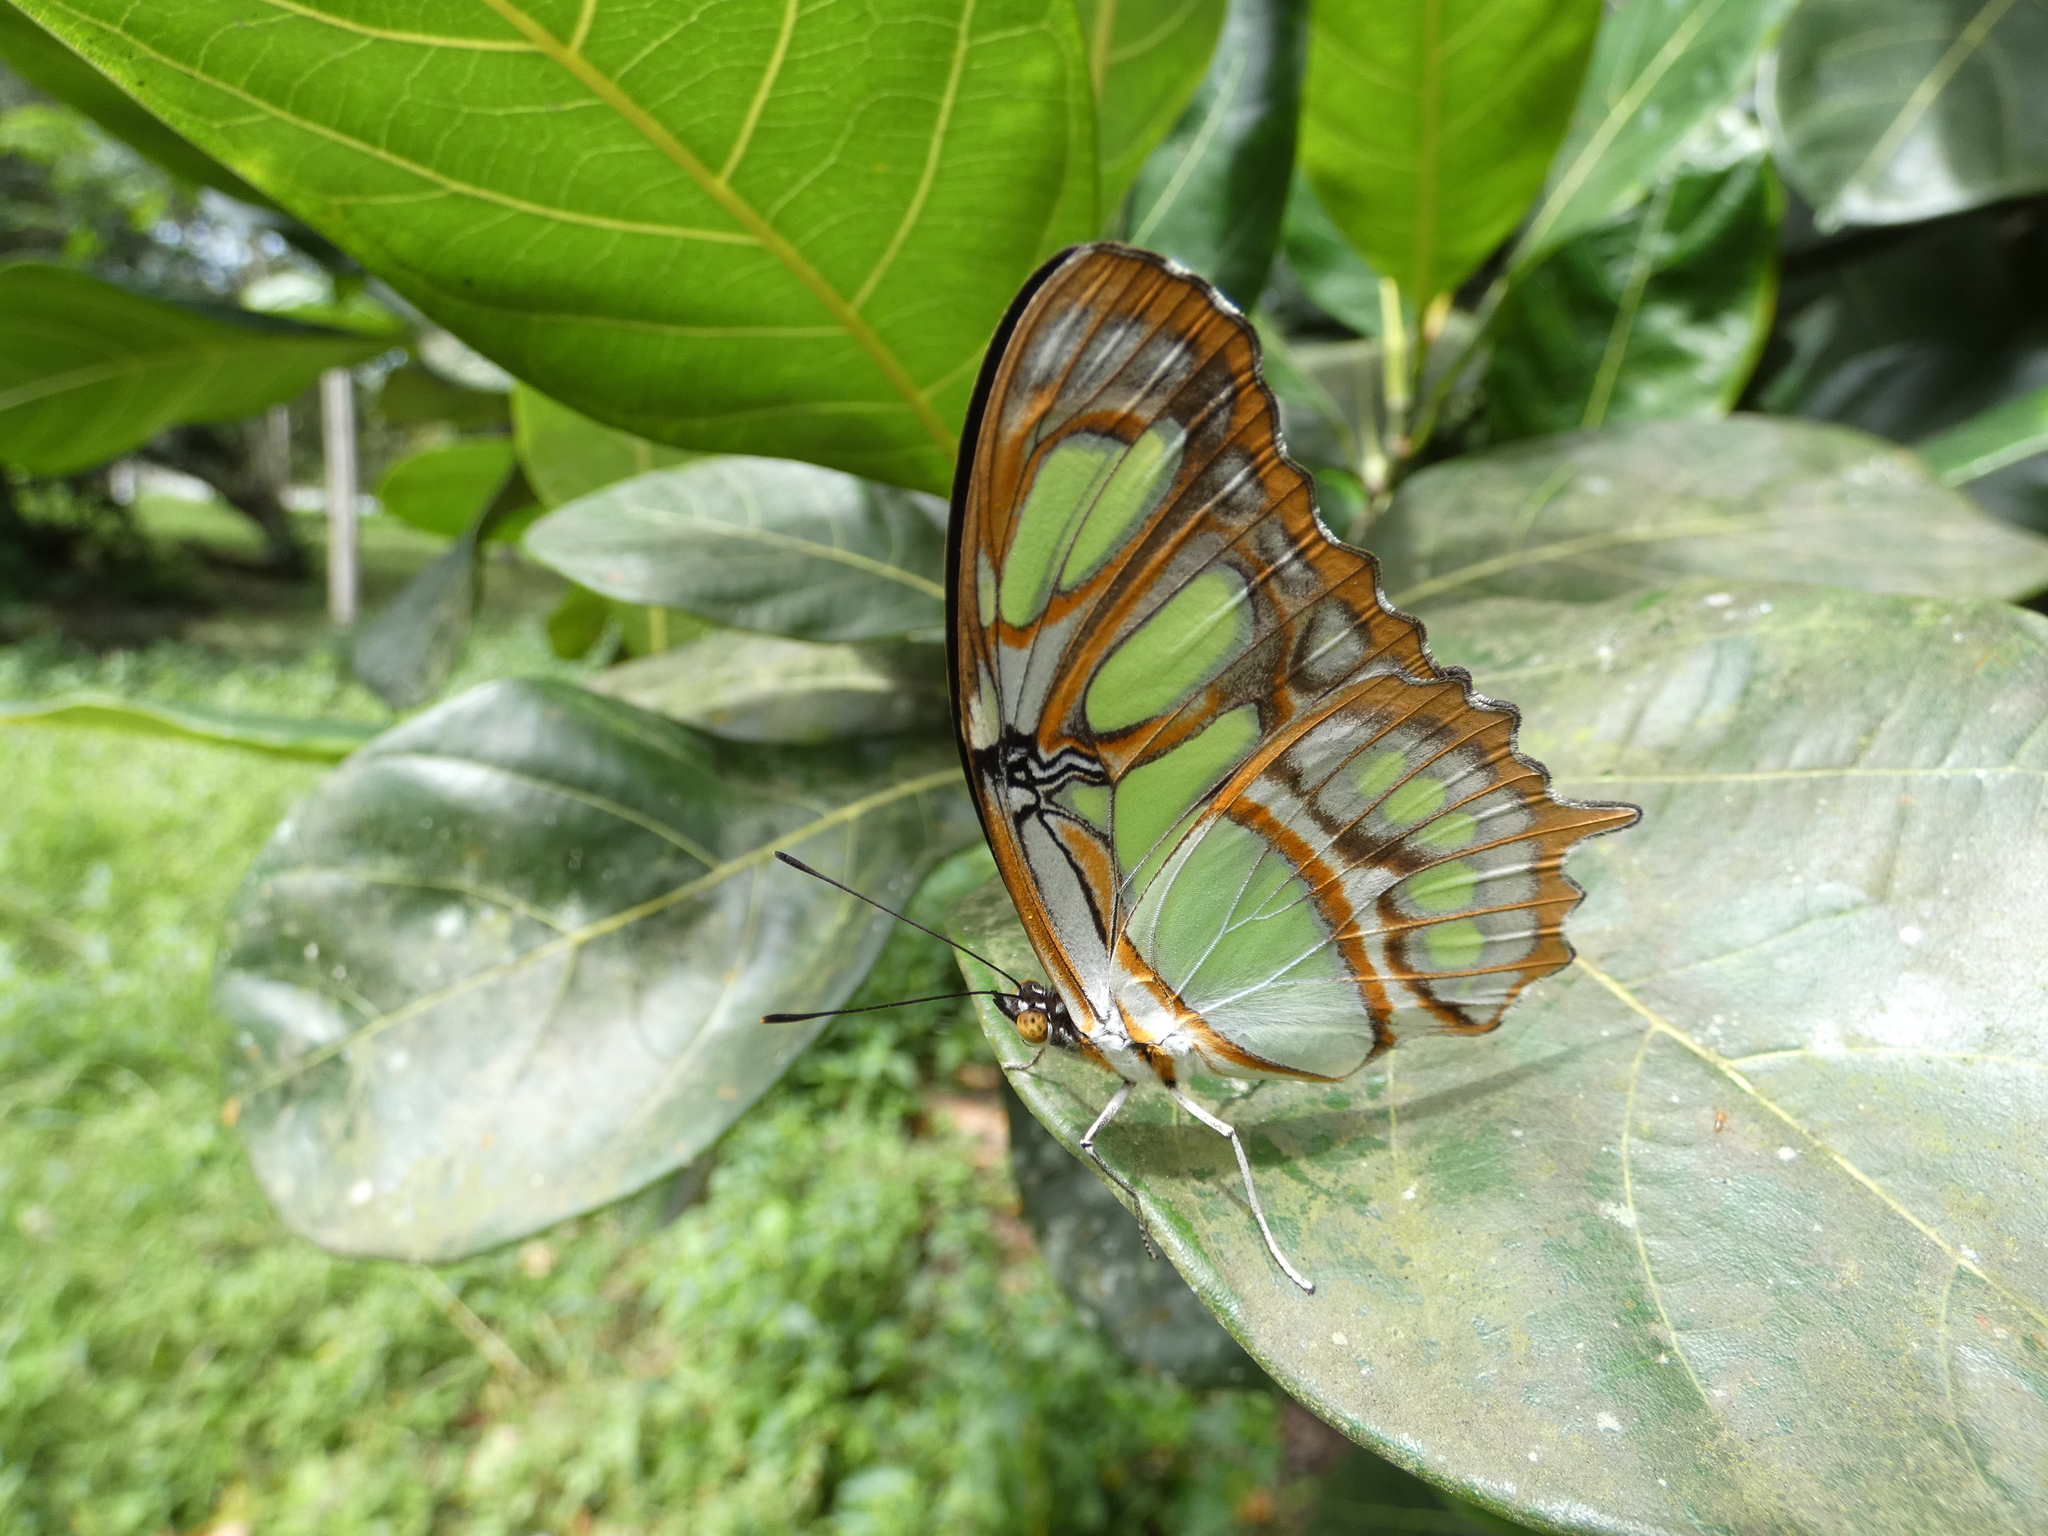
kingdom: Animalia
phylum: Arthropoda
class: Insecta
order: Lepidoptera
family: Nymphalidae
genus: Siproeta
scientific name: Siproeta stelenes
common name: Malachite
